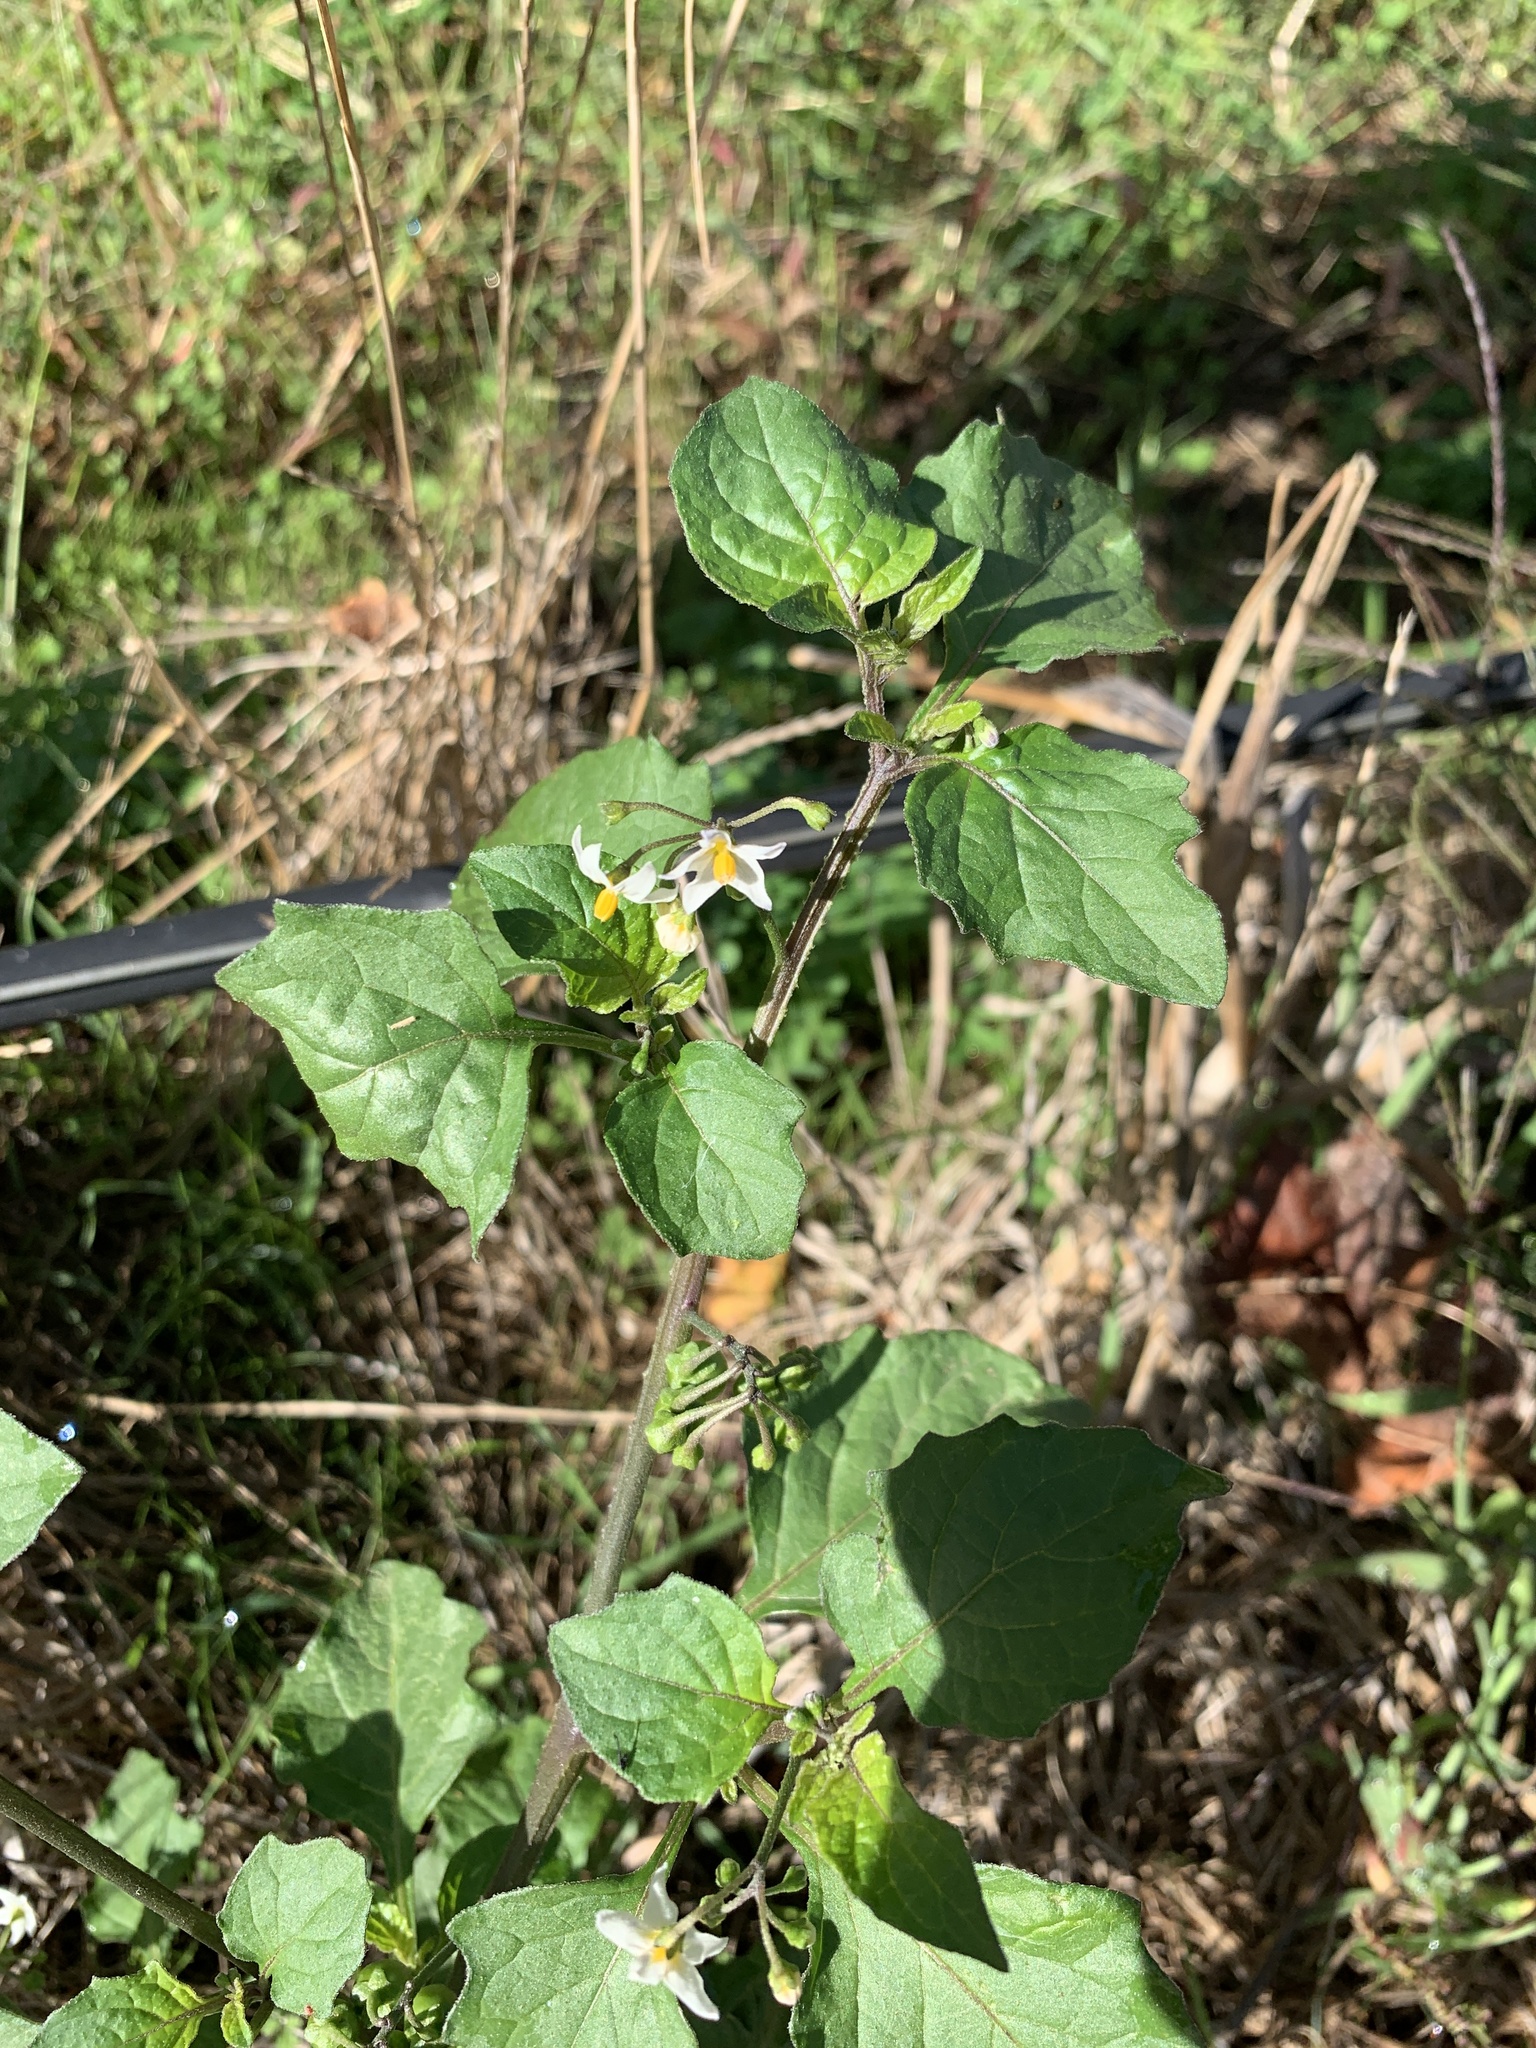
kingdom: Plantae
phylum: Tracheophyta
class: Magnoliopsida
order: Solanales
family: Solanaceae
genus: Solanum
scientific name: Solanum nigrum
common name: Black nightshade
